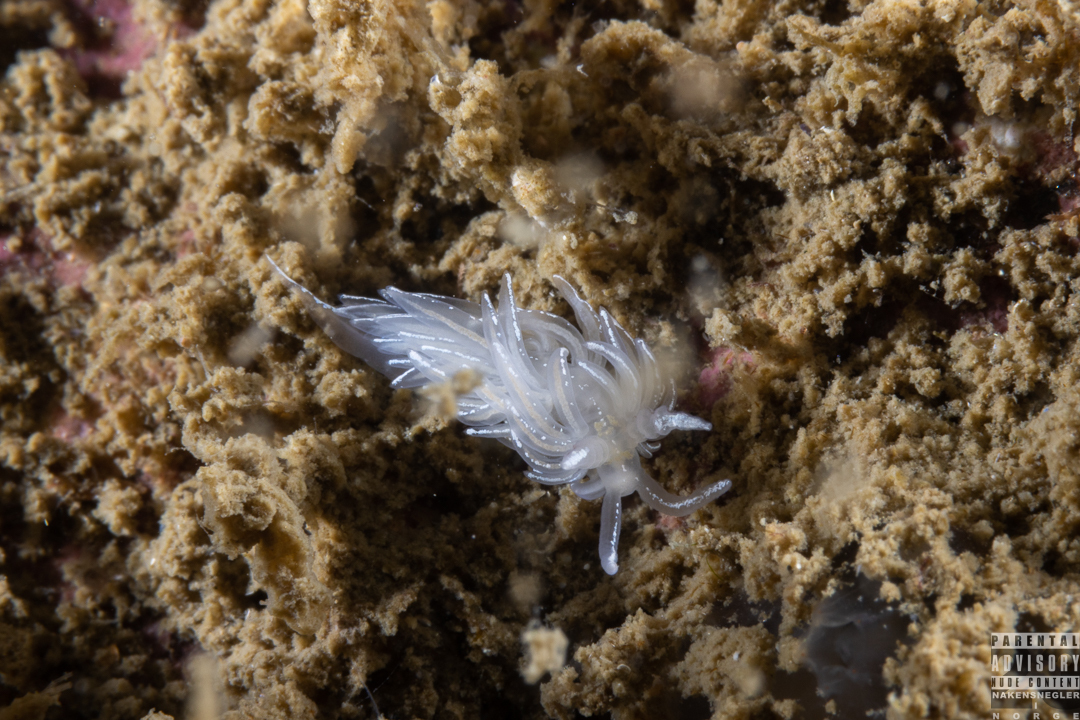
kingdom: Animalia
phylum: Mollusca
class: Gastropoda
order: Nudibranchia
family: Facelinidae
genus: Favorinus
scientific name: Favorinus blianus
